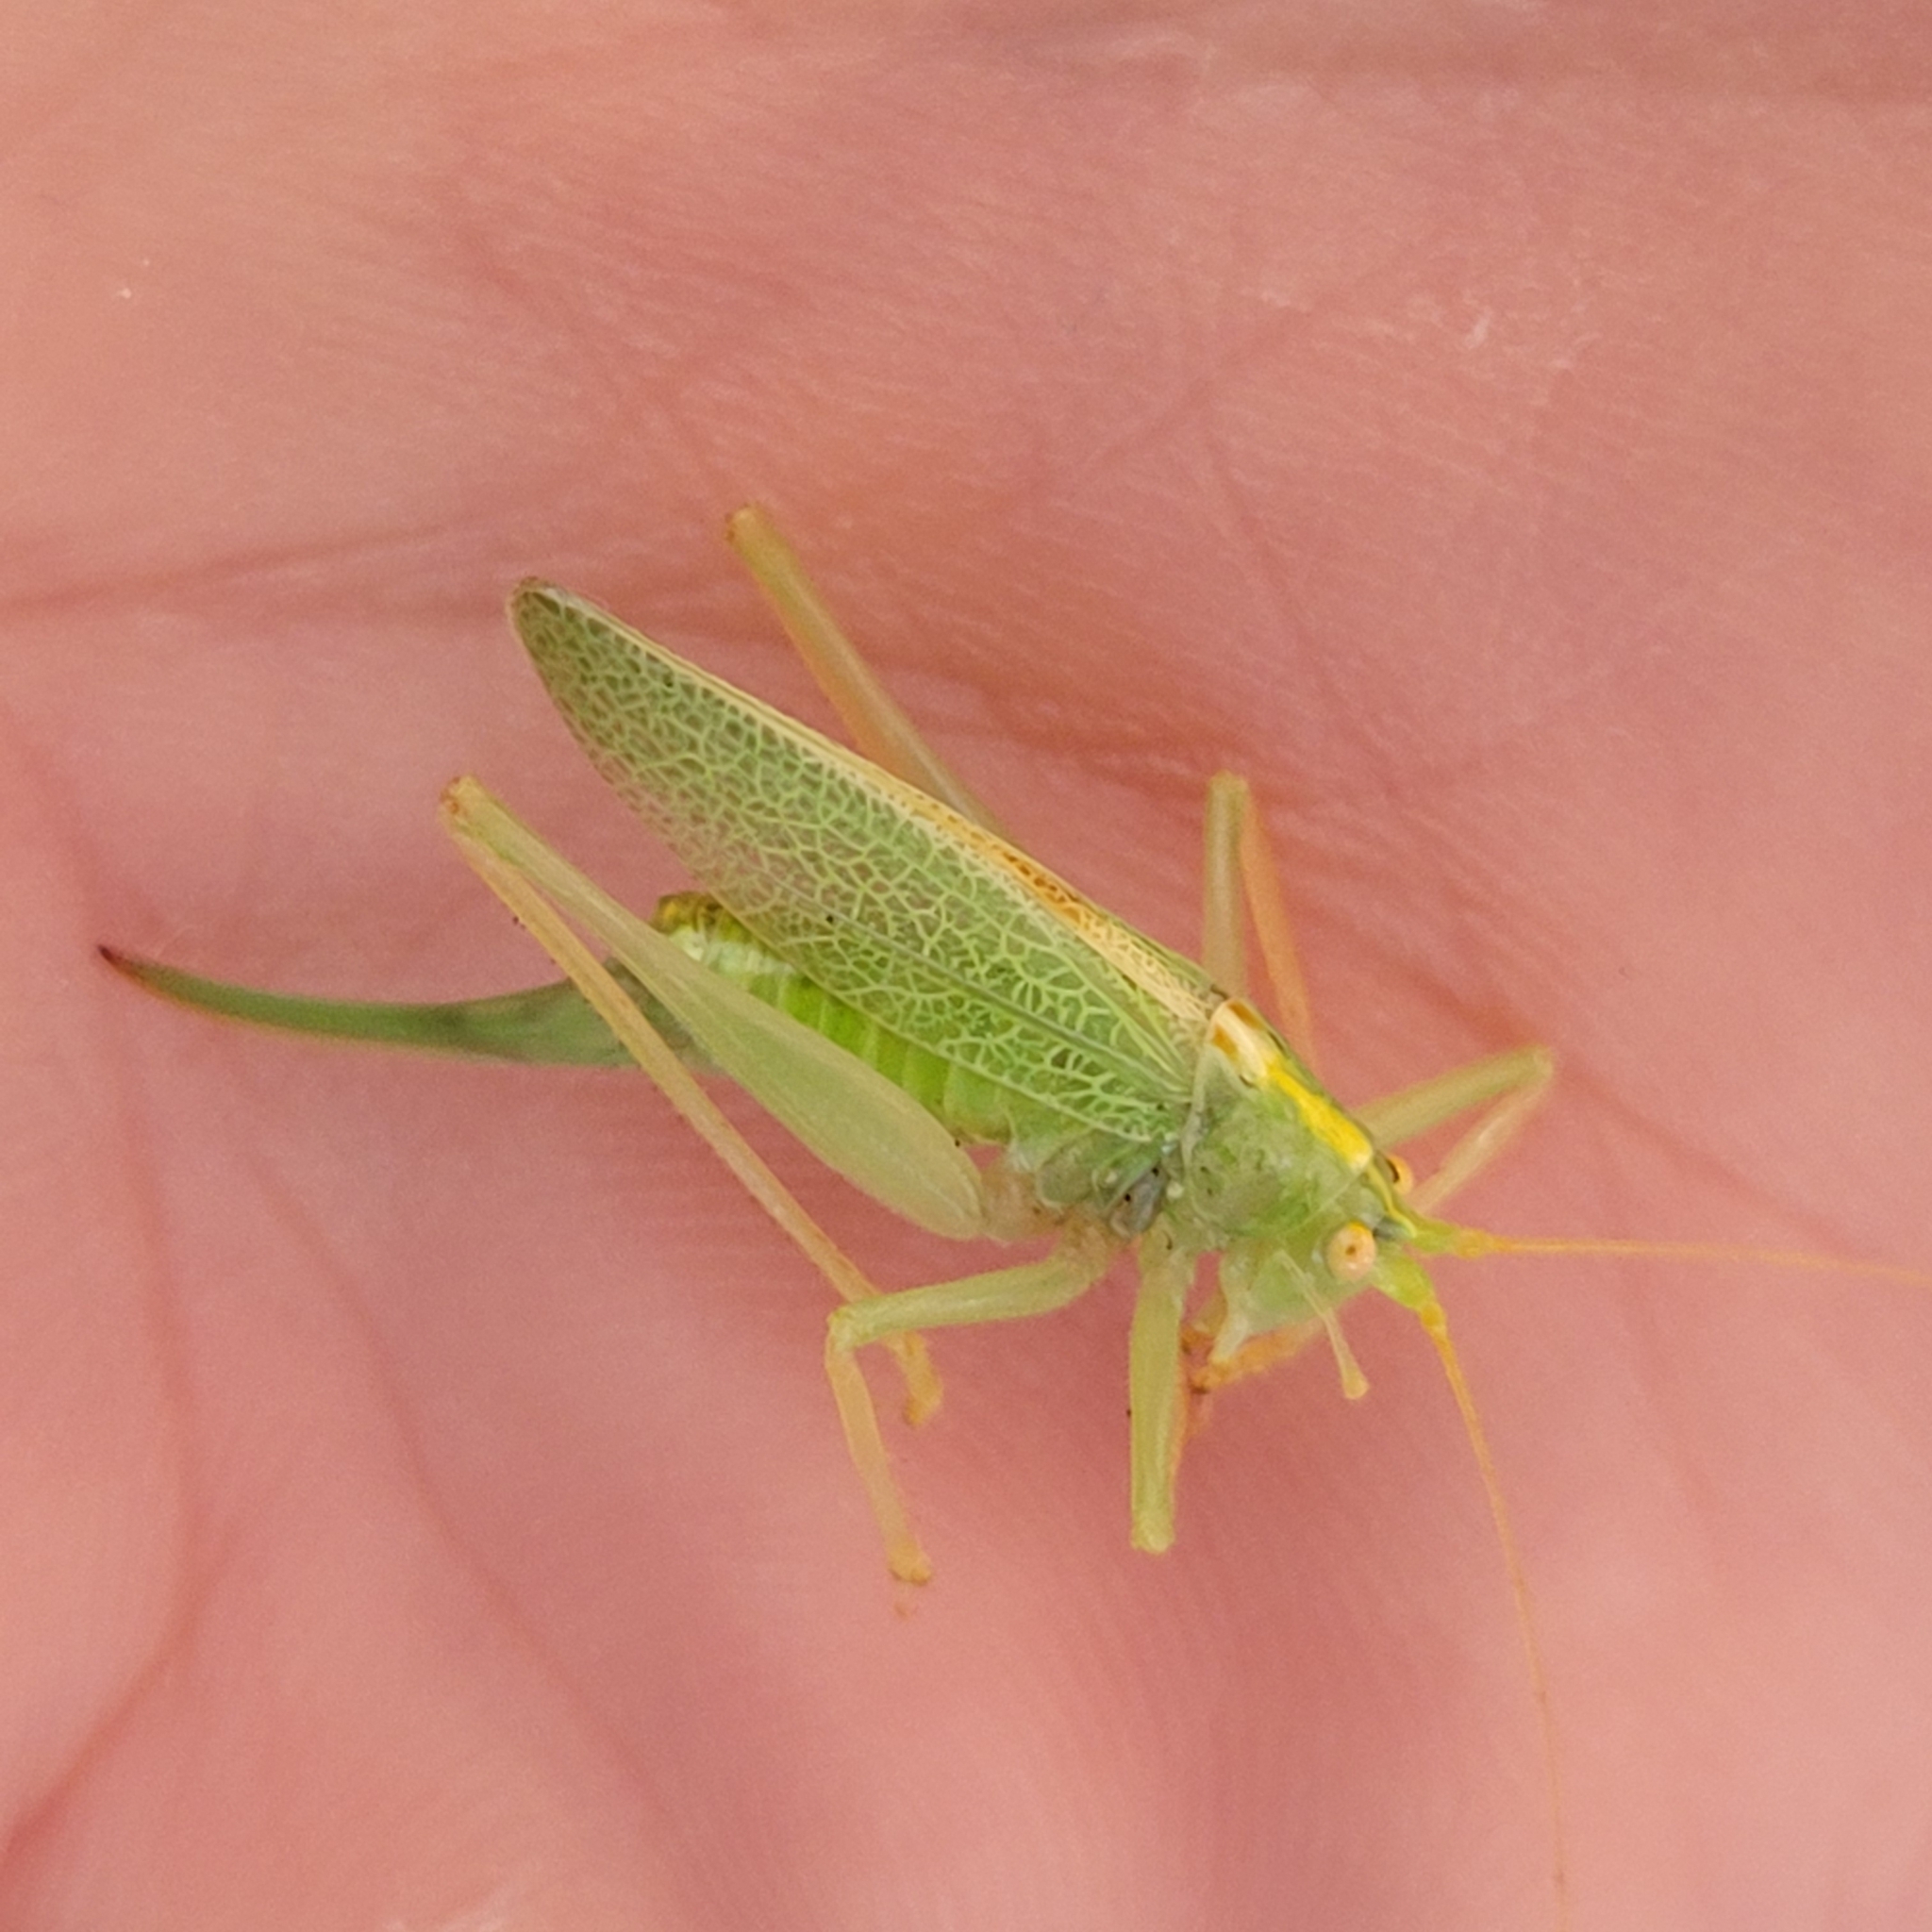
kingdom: Animalia
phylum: Arthropoda
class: Insecta
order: Orthoptera
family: Tettigoniidae
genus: Meconema
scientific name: Meconema thalassinum
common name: Oak bush-cricket
